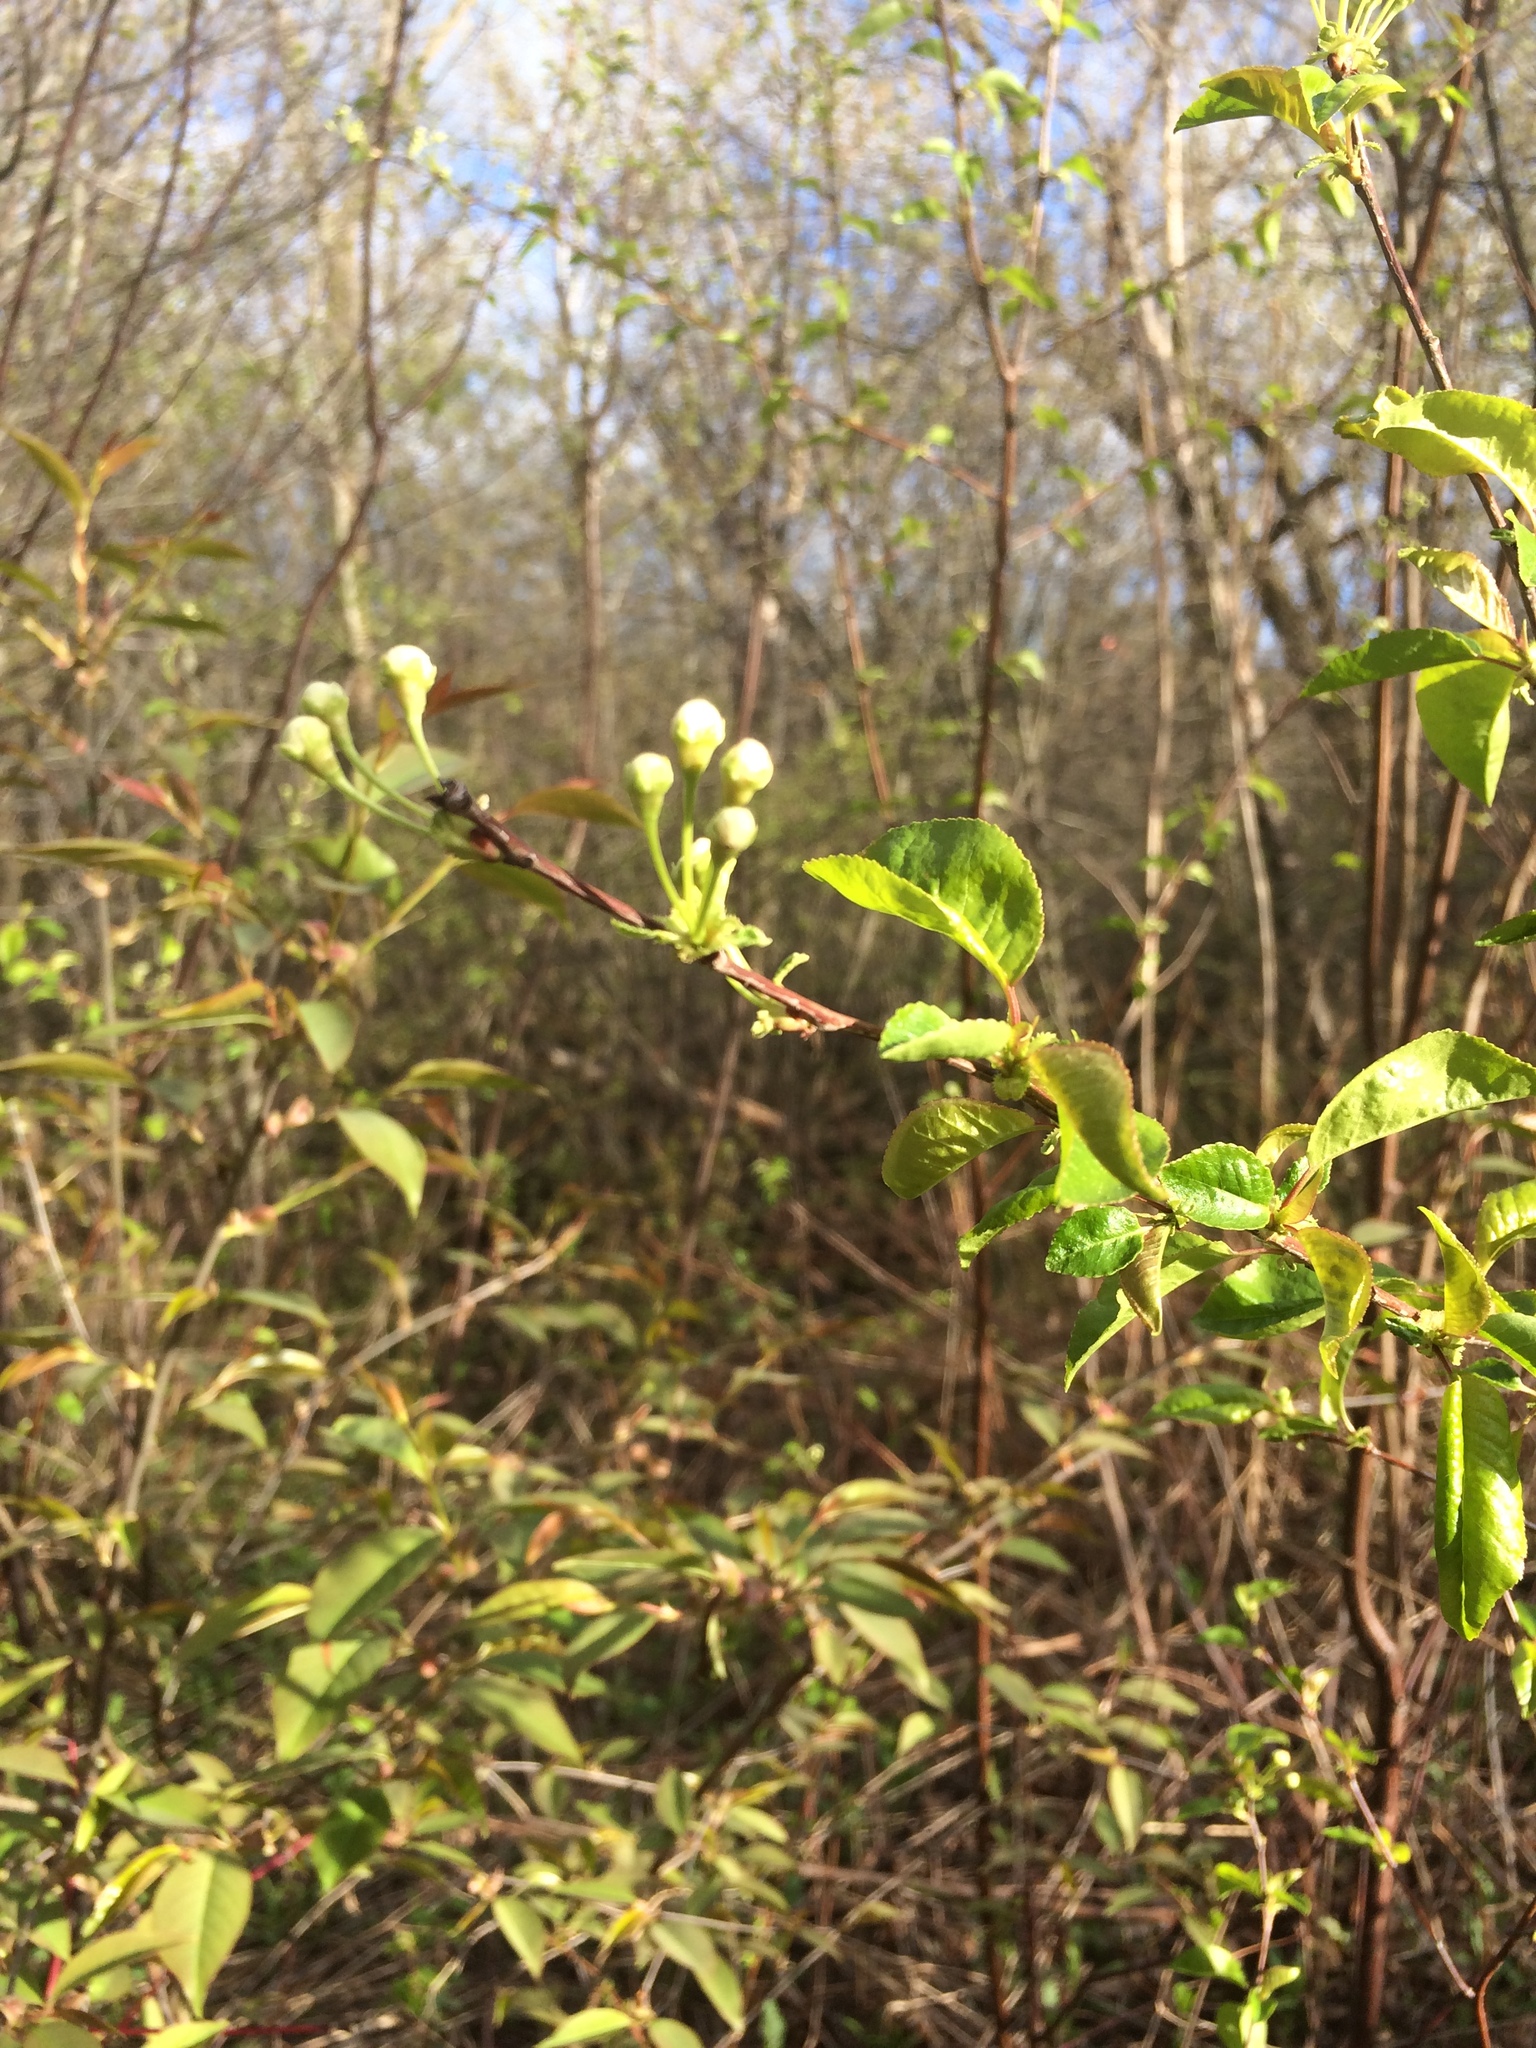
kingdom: Plantae
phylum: Tracheophyta
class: Magnoliopsida
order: Rosales
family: Rosaceae
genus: Prunus
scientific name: Prunus pensylvanica
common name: Pin cherry
